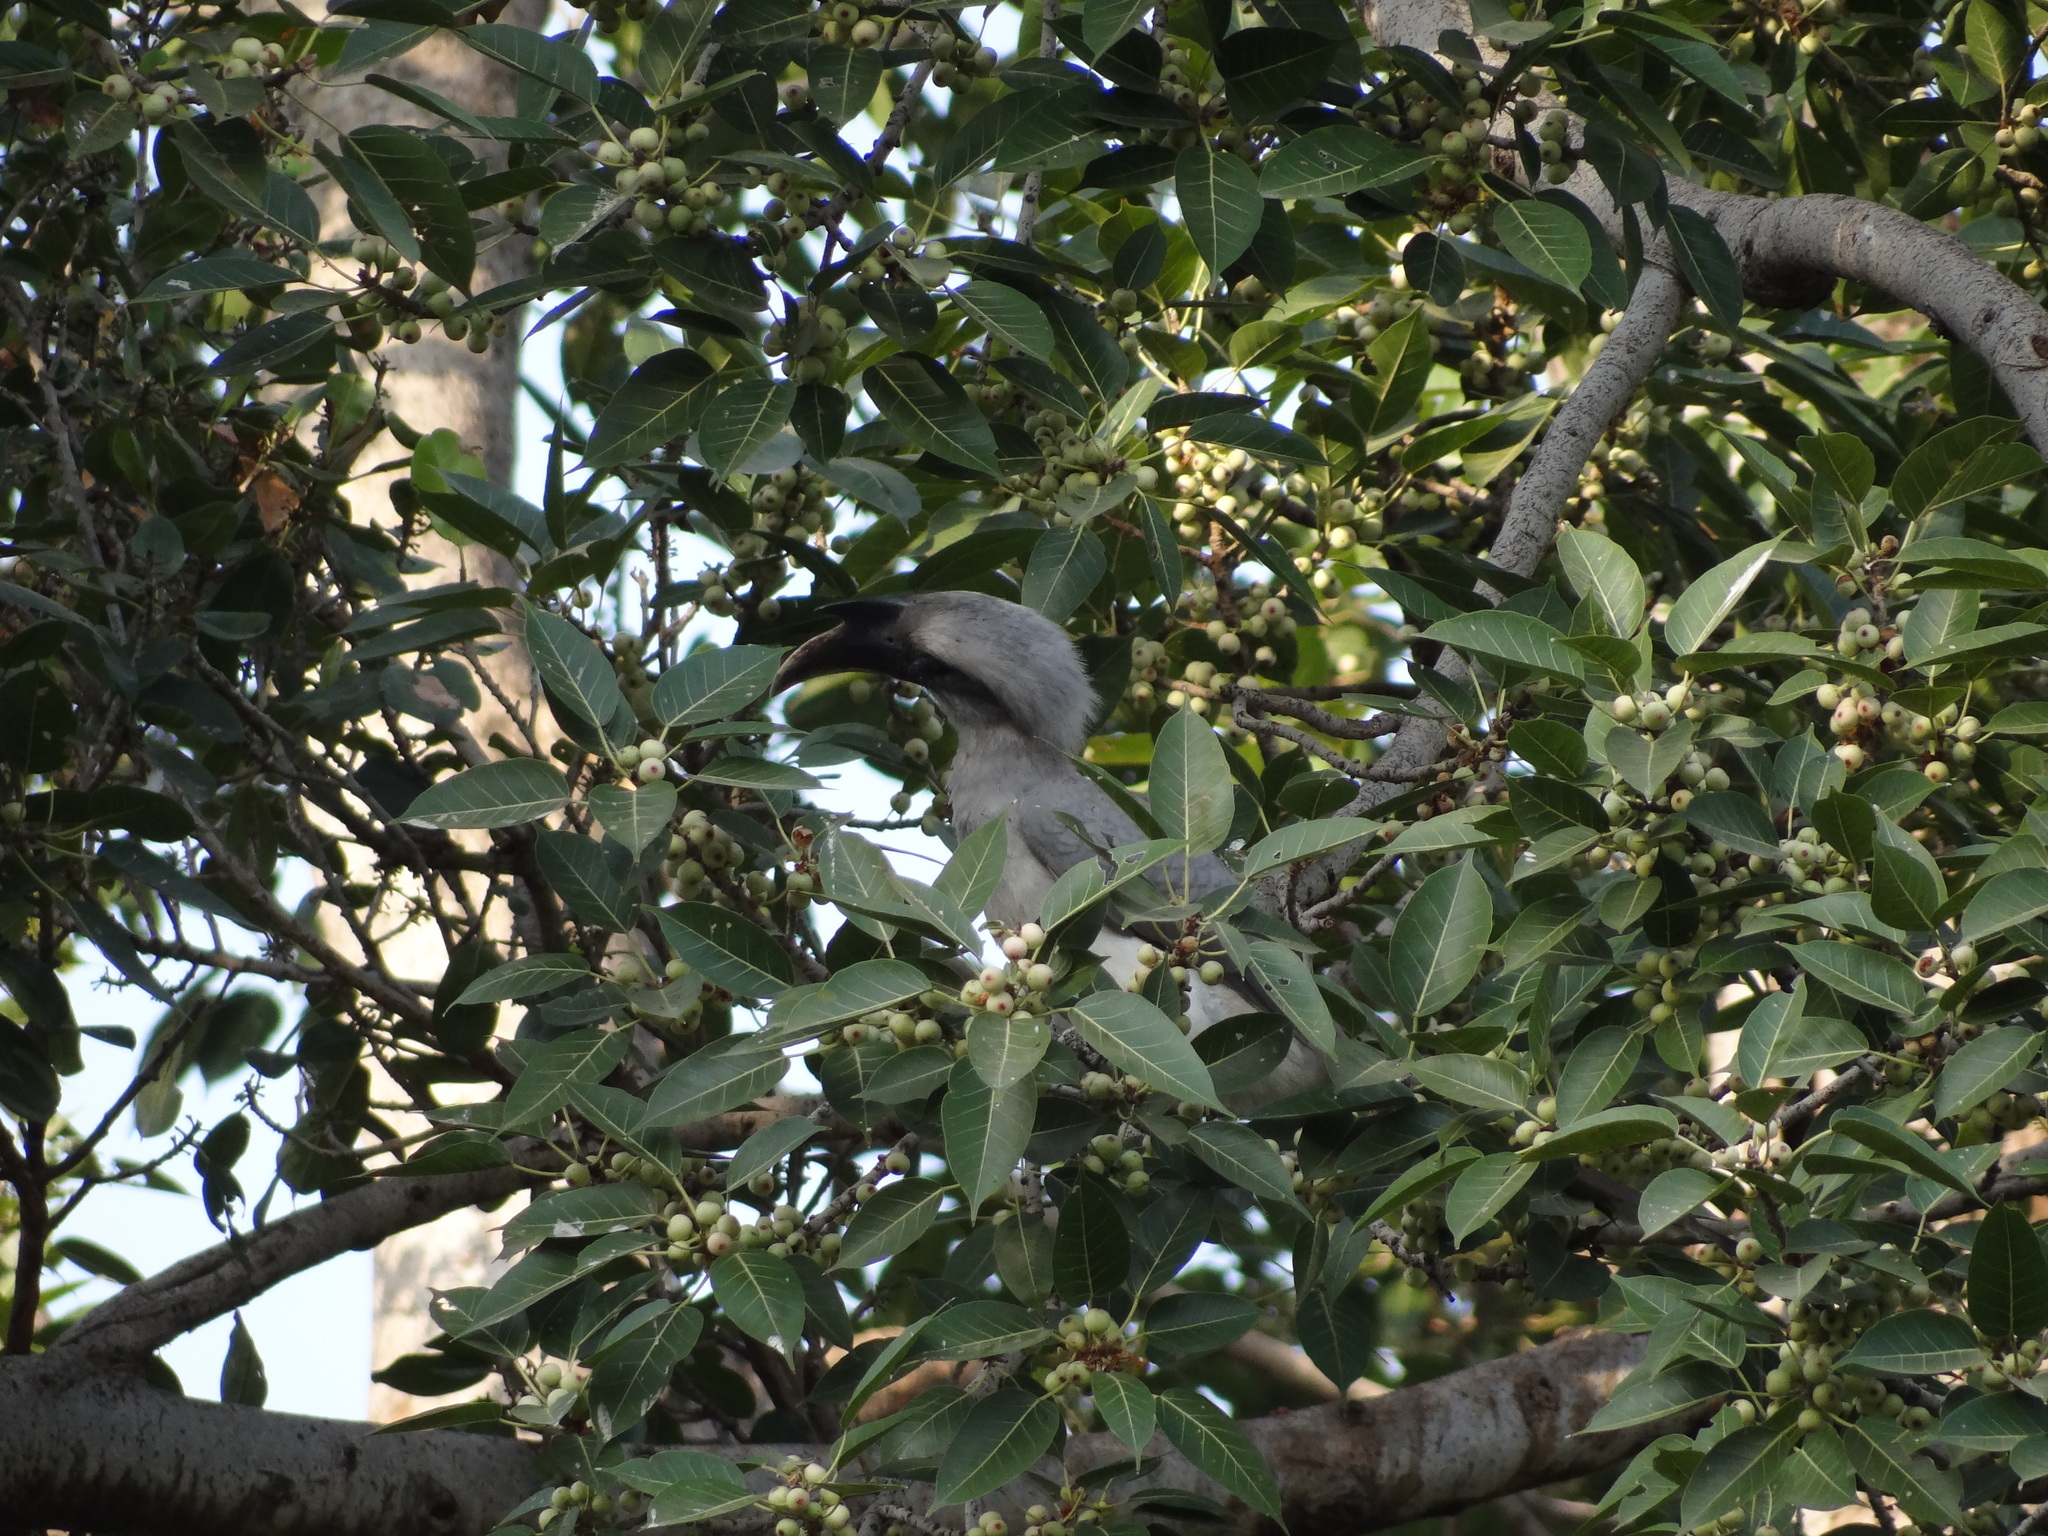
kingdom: Animalia
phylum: Chordata
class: Aves
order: Bucerotiformes
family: Bucerotidae
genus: Ocyceros
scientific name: Ocyceros birostris
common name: Indian grey hornbill
